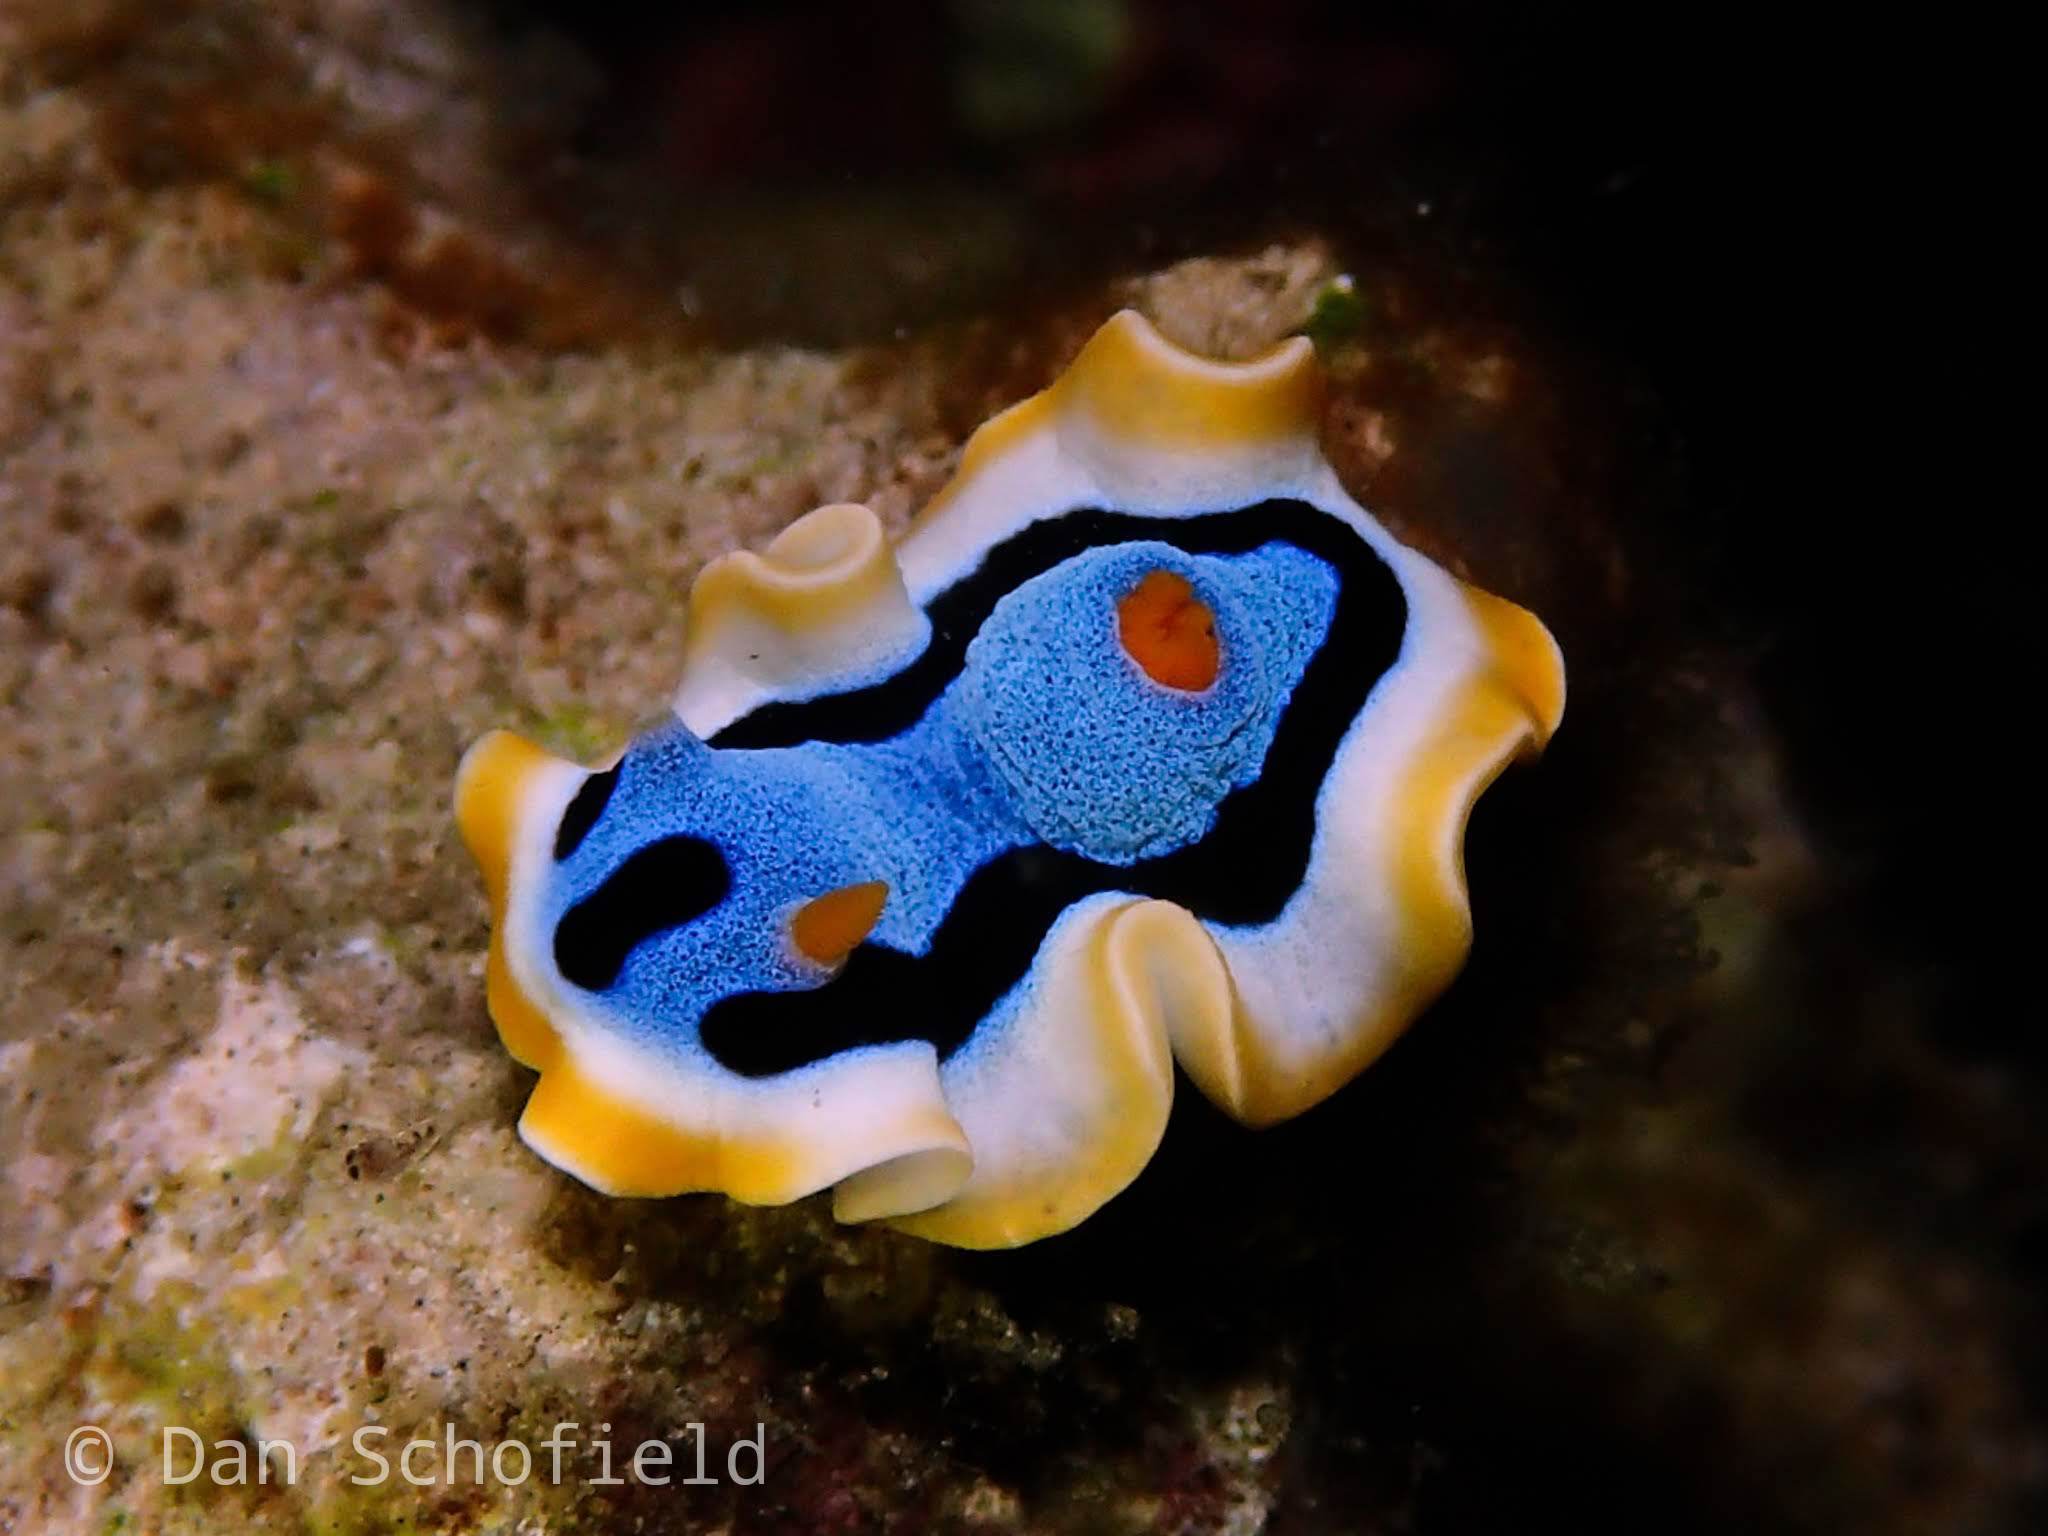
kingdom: Animalia
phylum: Mollusca
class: Gastropoda
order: Nudibranchia
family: Chromodorididae
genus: Chromodoris
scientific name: Chromodoris annae
